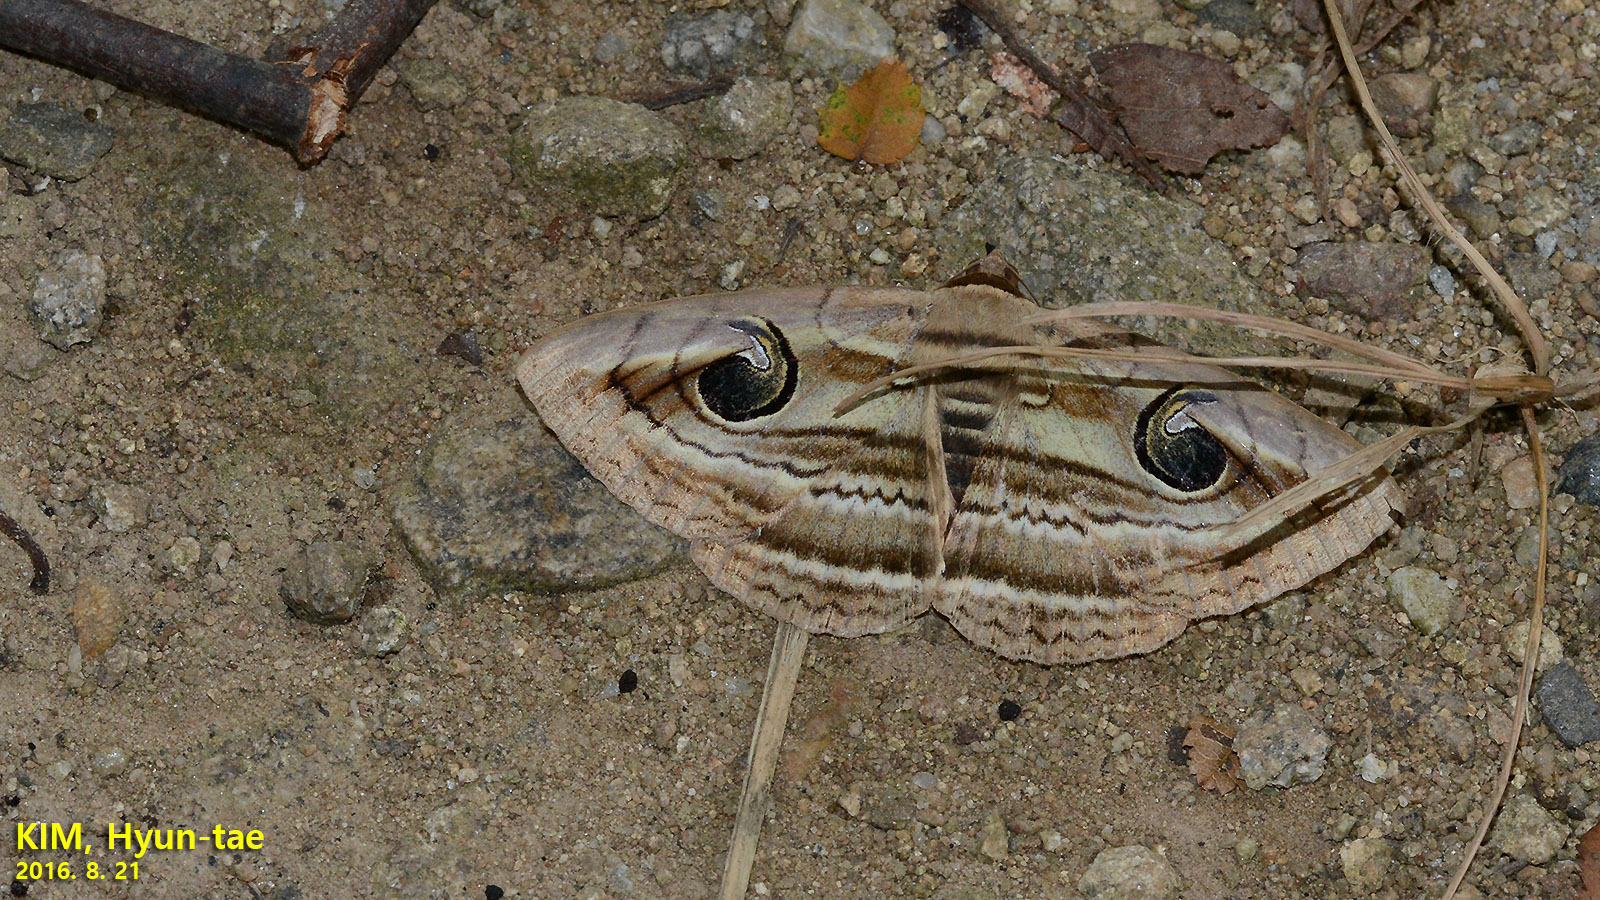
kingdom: Animalia
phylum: Arthropoda
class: Insecta
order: Lepidoptera
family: Erebidae
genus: Spirama
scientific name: Spirama retorta
